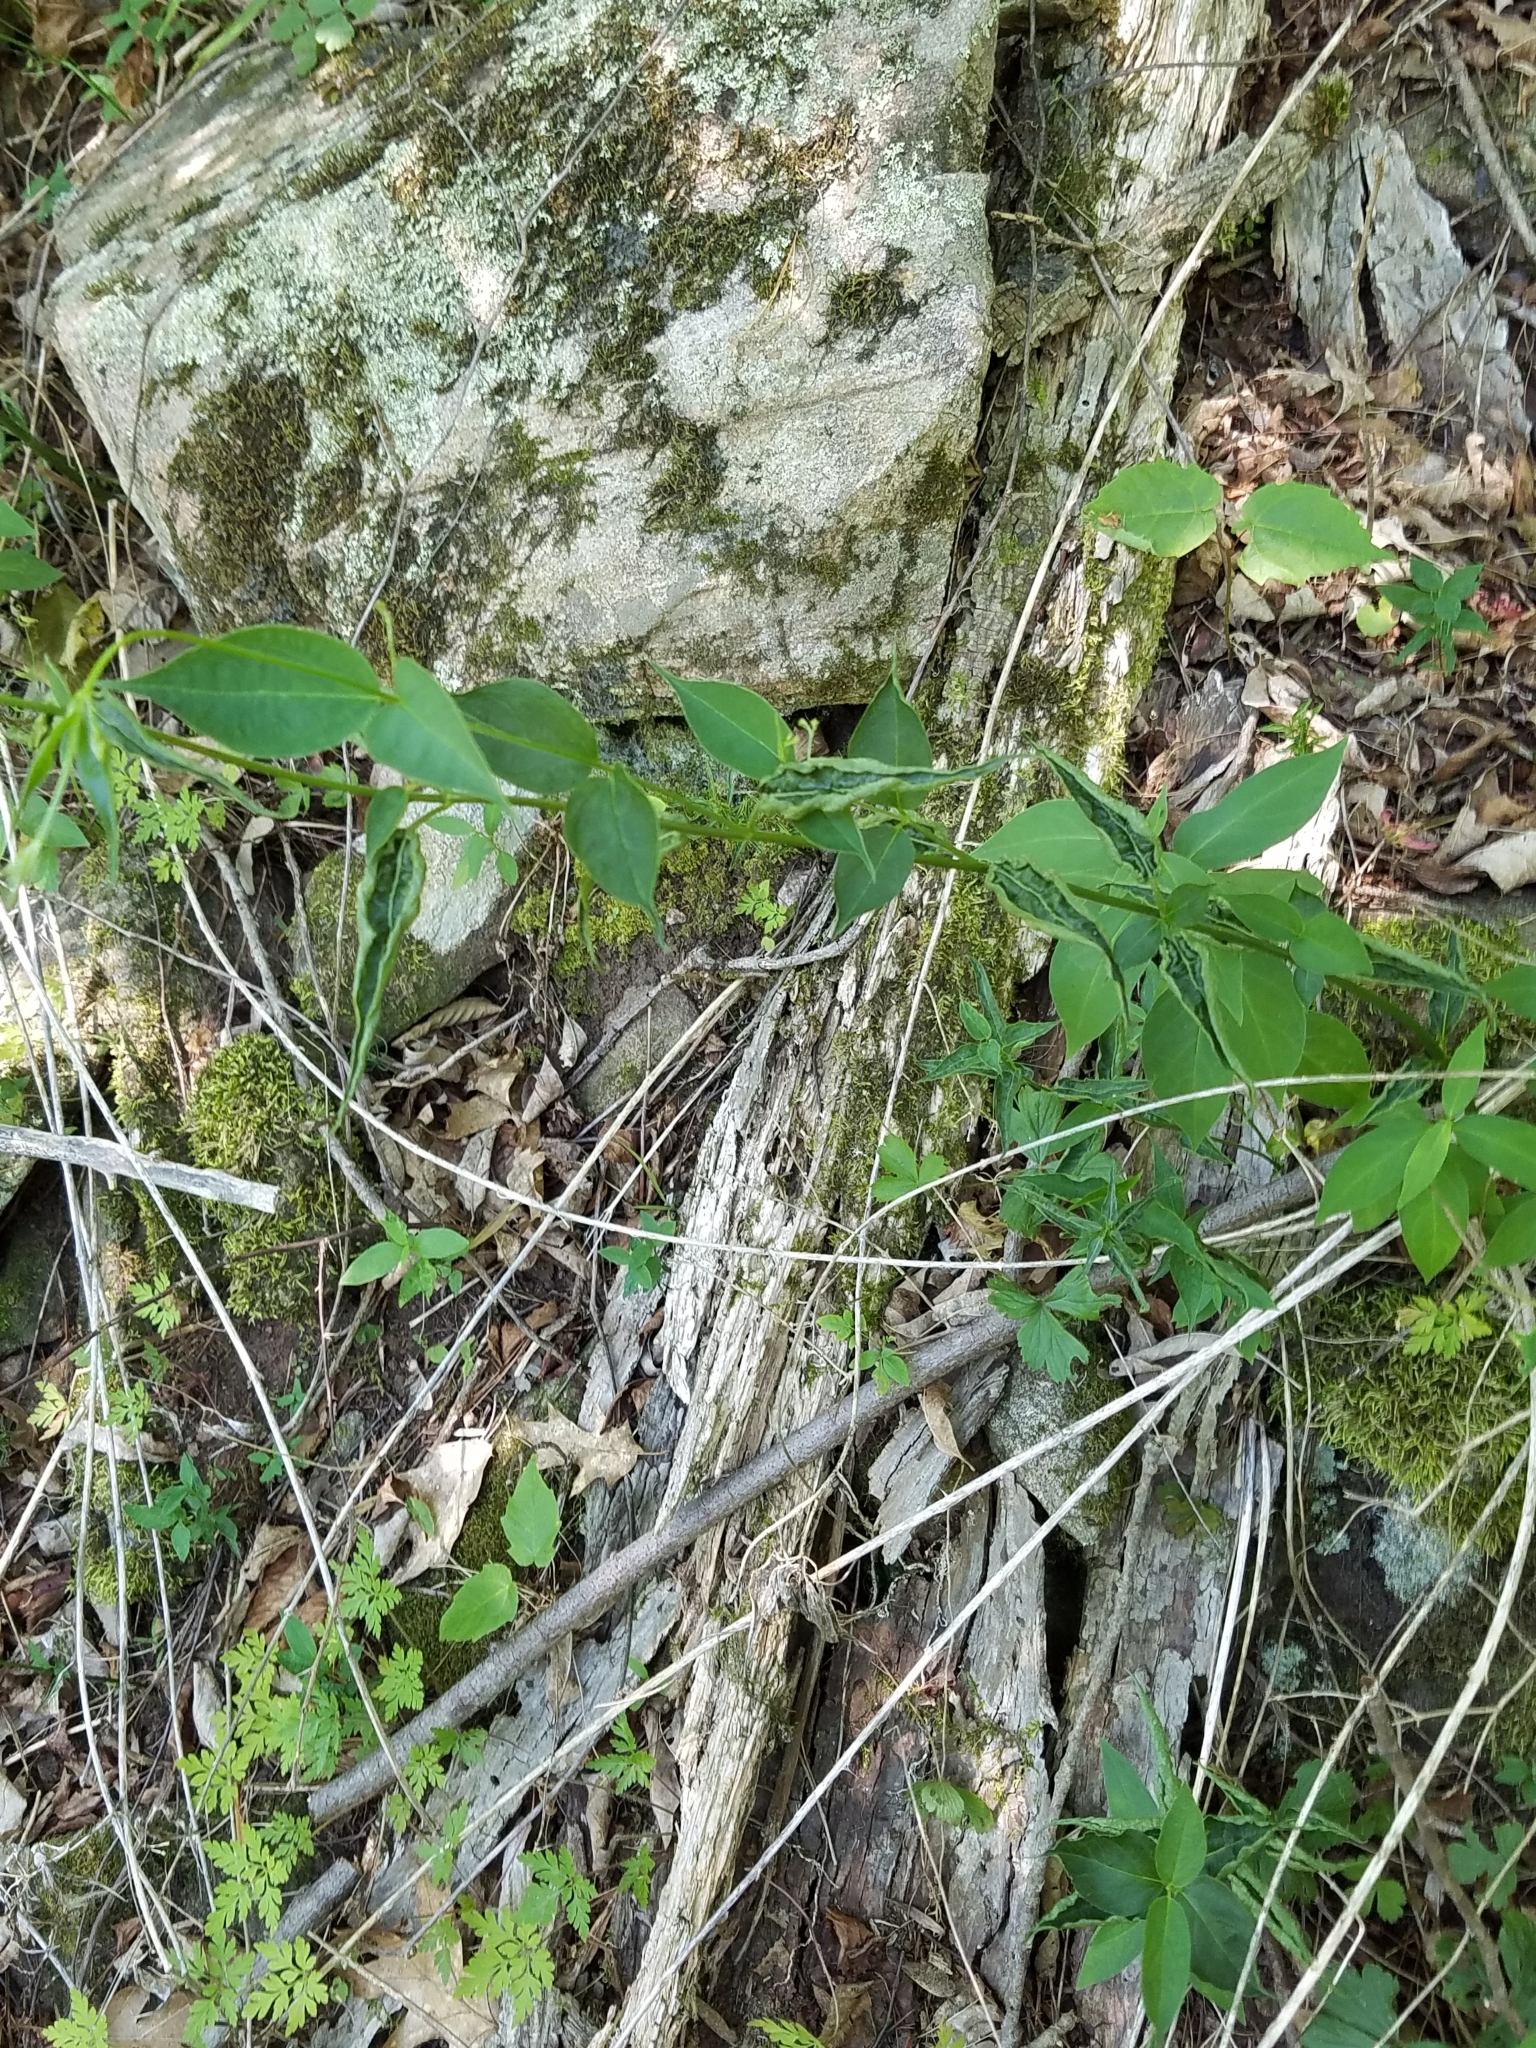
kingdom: Plantae
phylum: Tracheophyta
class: Magnoliopsida
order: Gentianales
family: Apocynaceae
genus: Vincetoxicum
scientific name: Vincetoxicum rossicum
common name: Dog-strangling vine
